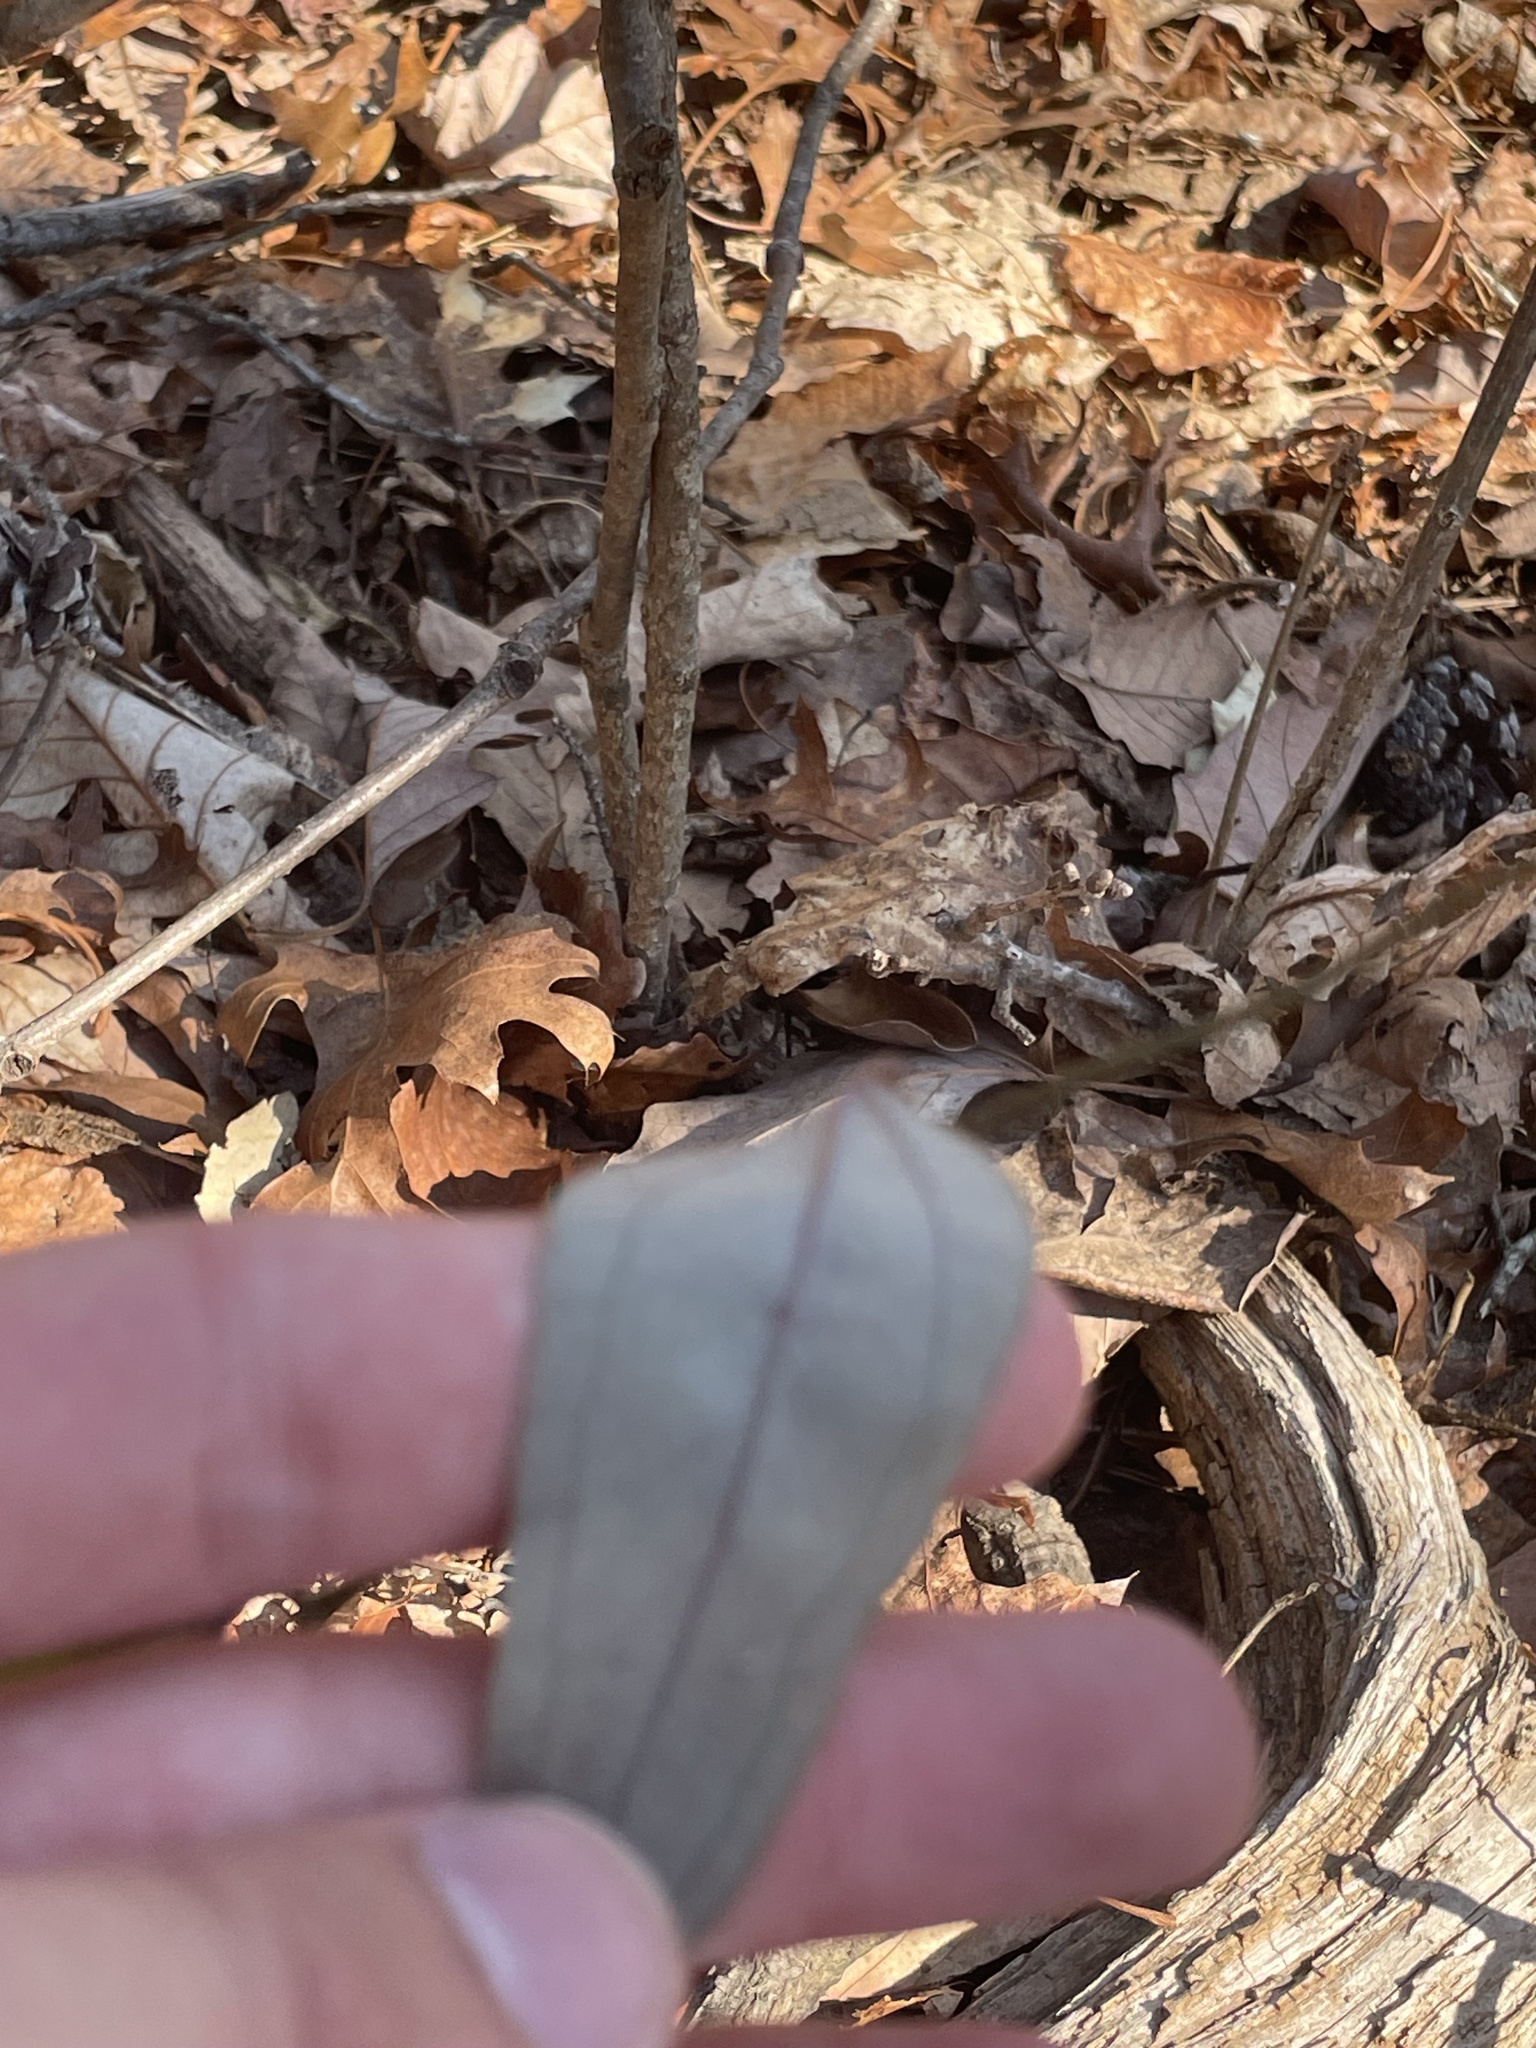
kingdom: Plantae
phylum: Tracheophyta
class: Liliopsida
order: Liliales
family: Smilacaceae
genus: Smilax
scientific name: Smilax glauca
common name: Cat greenbrier
